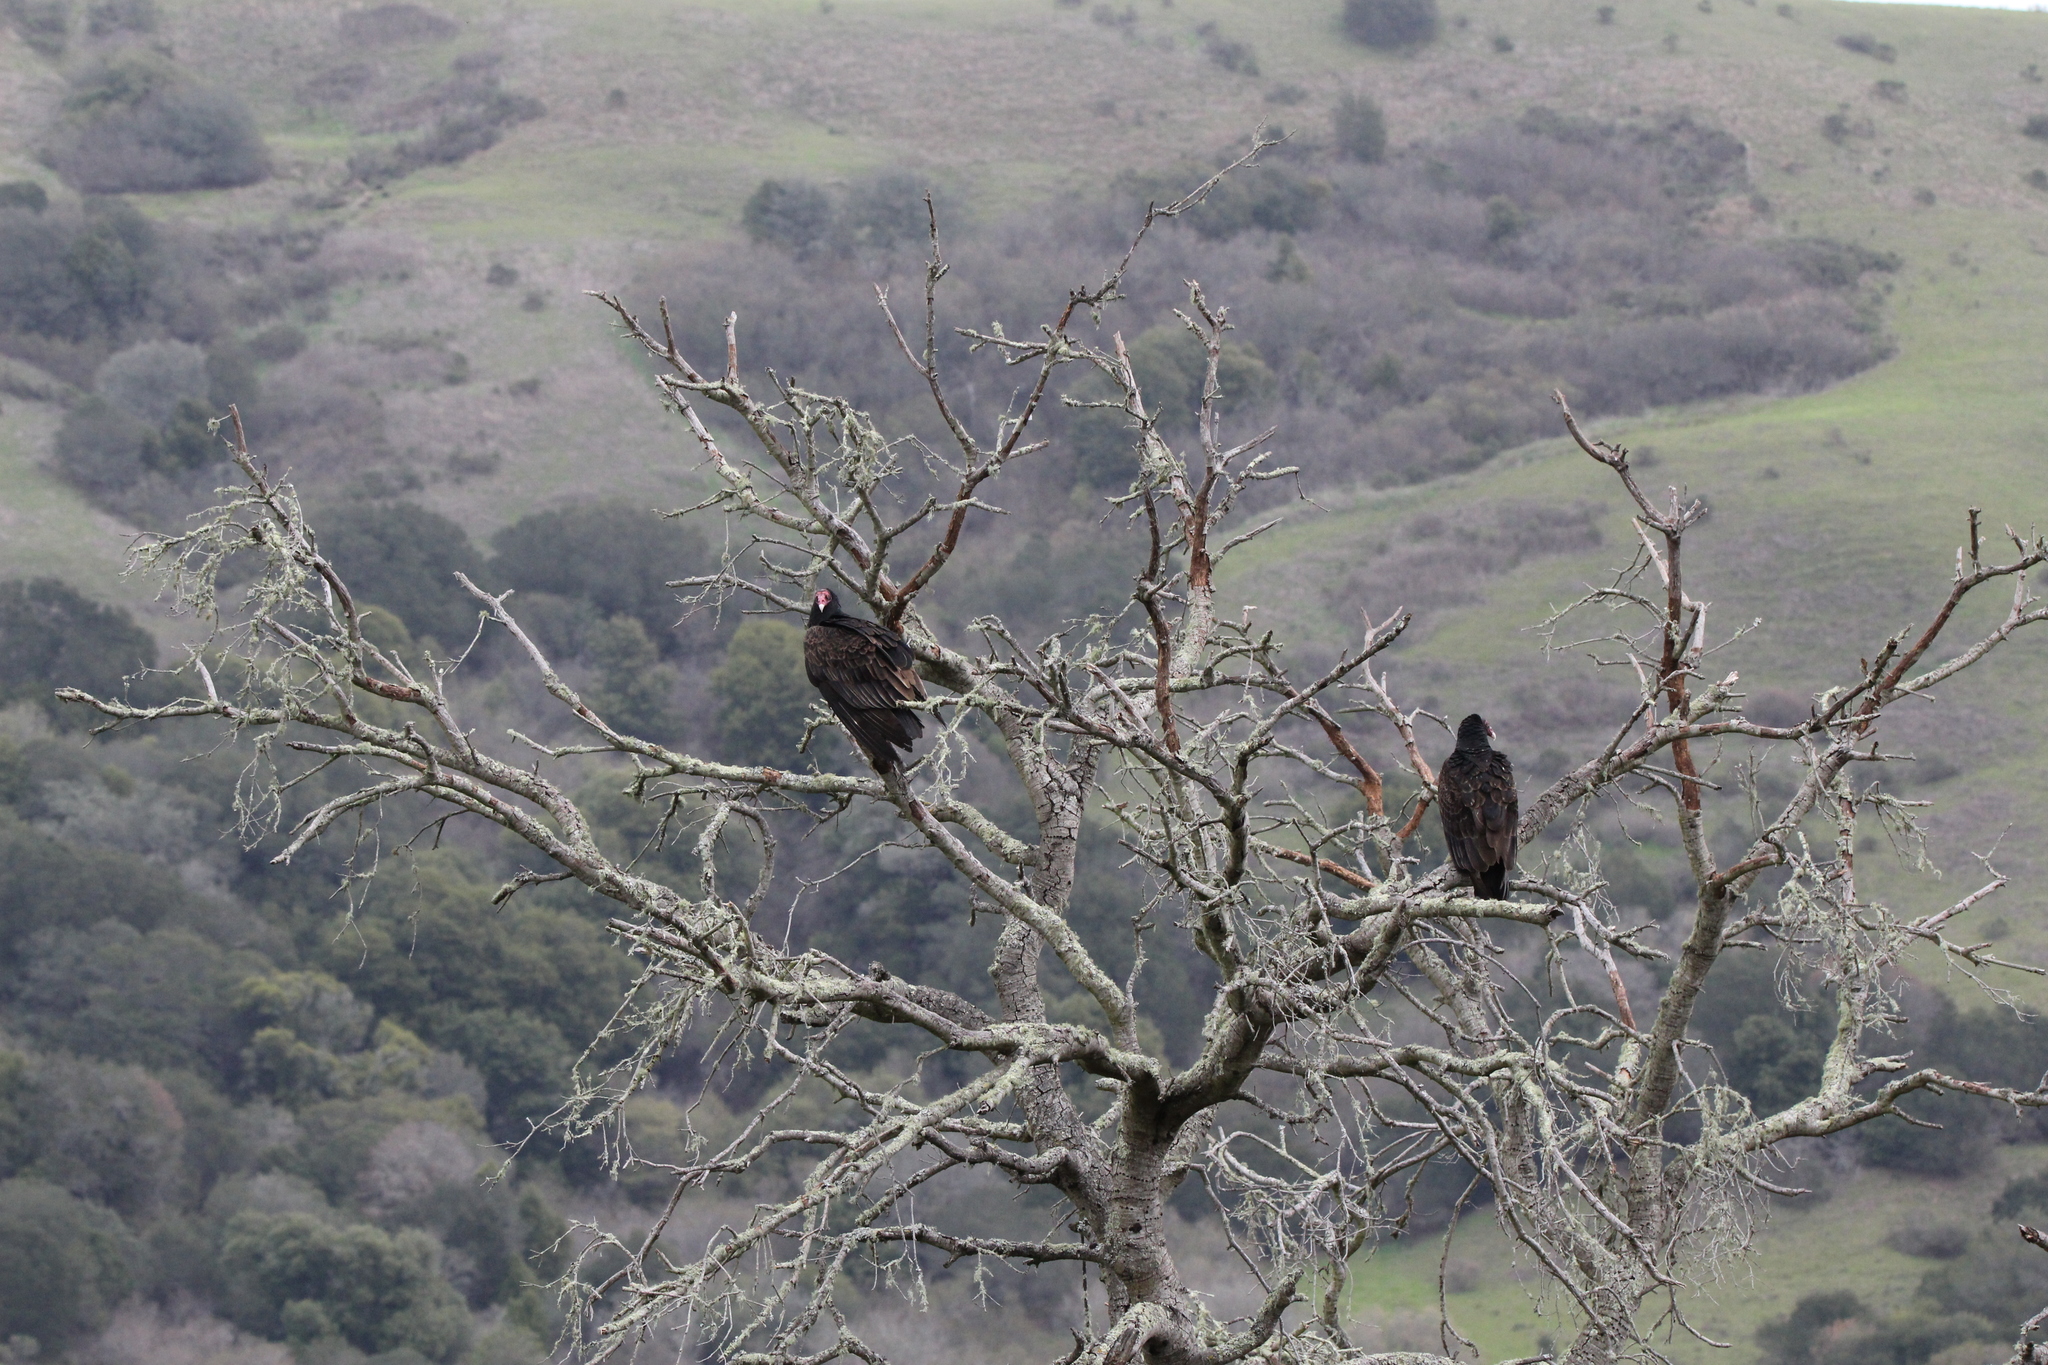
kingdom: Animalia
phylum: Chordata
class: Aves
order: Accipitriformes
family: Cathartidae
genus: Cathartes
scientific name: Cathartes aura
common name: Turkey vulture
